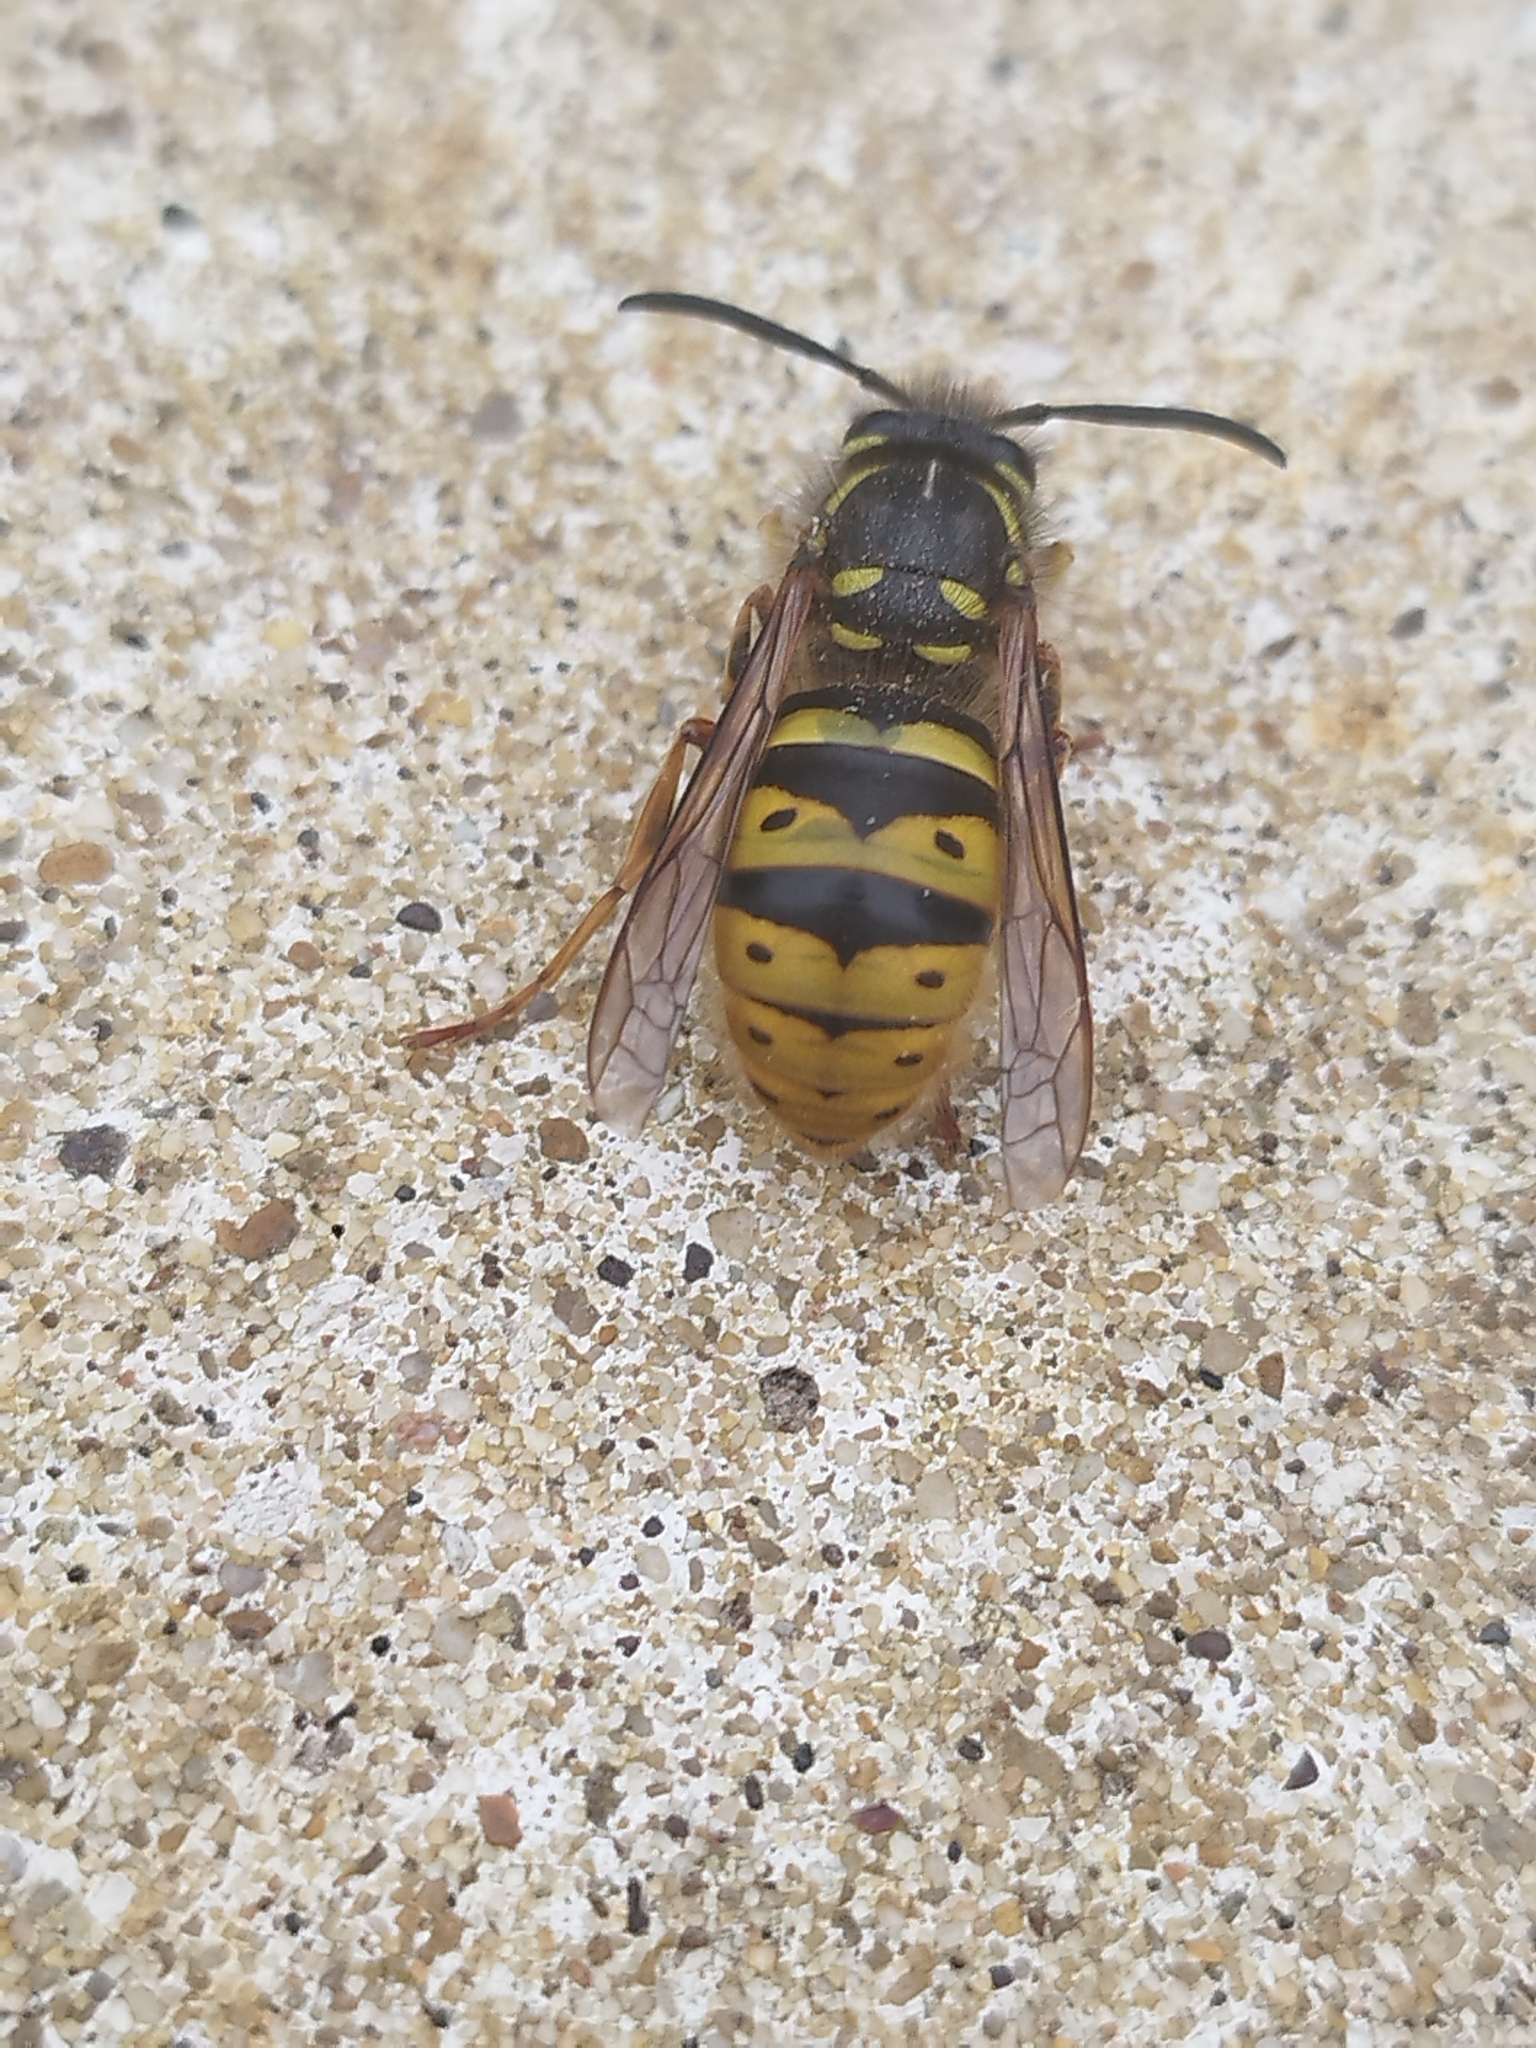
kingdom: Animalia
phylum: Arthropoda
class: Insecta
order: Hymenoptera
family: Vespidae
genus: Vespula
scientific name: Vespula vulgaris
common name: Common wasp
